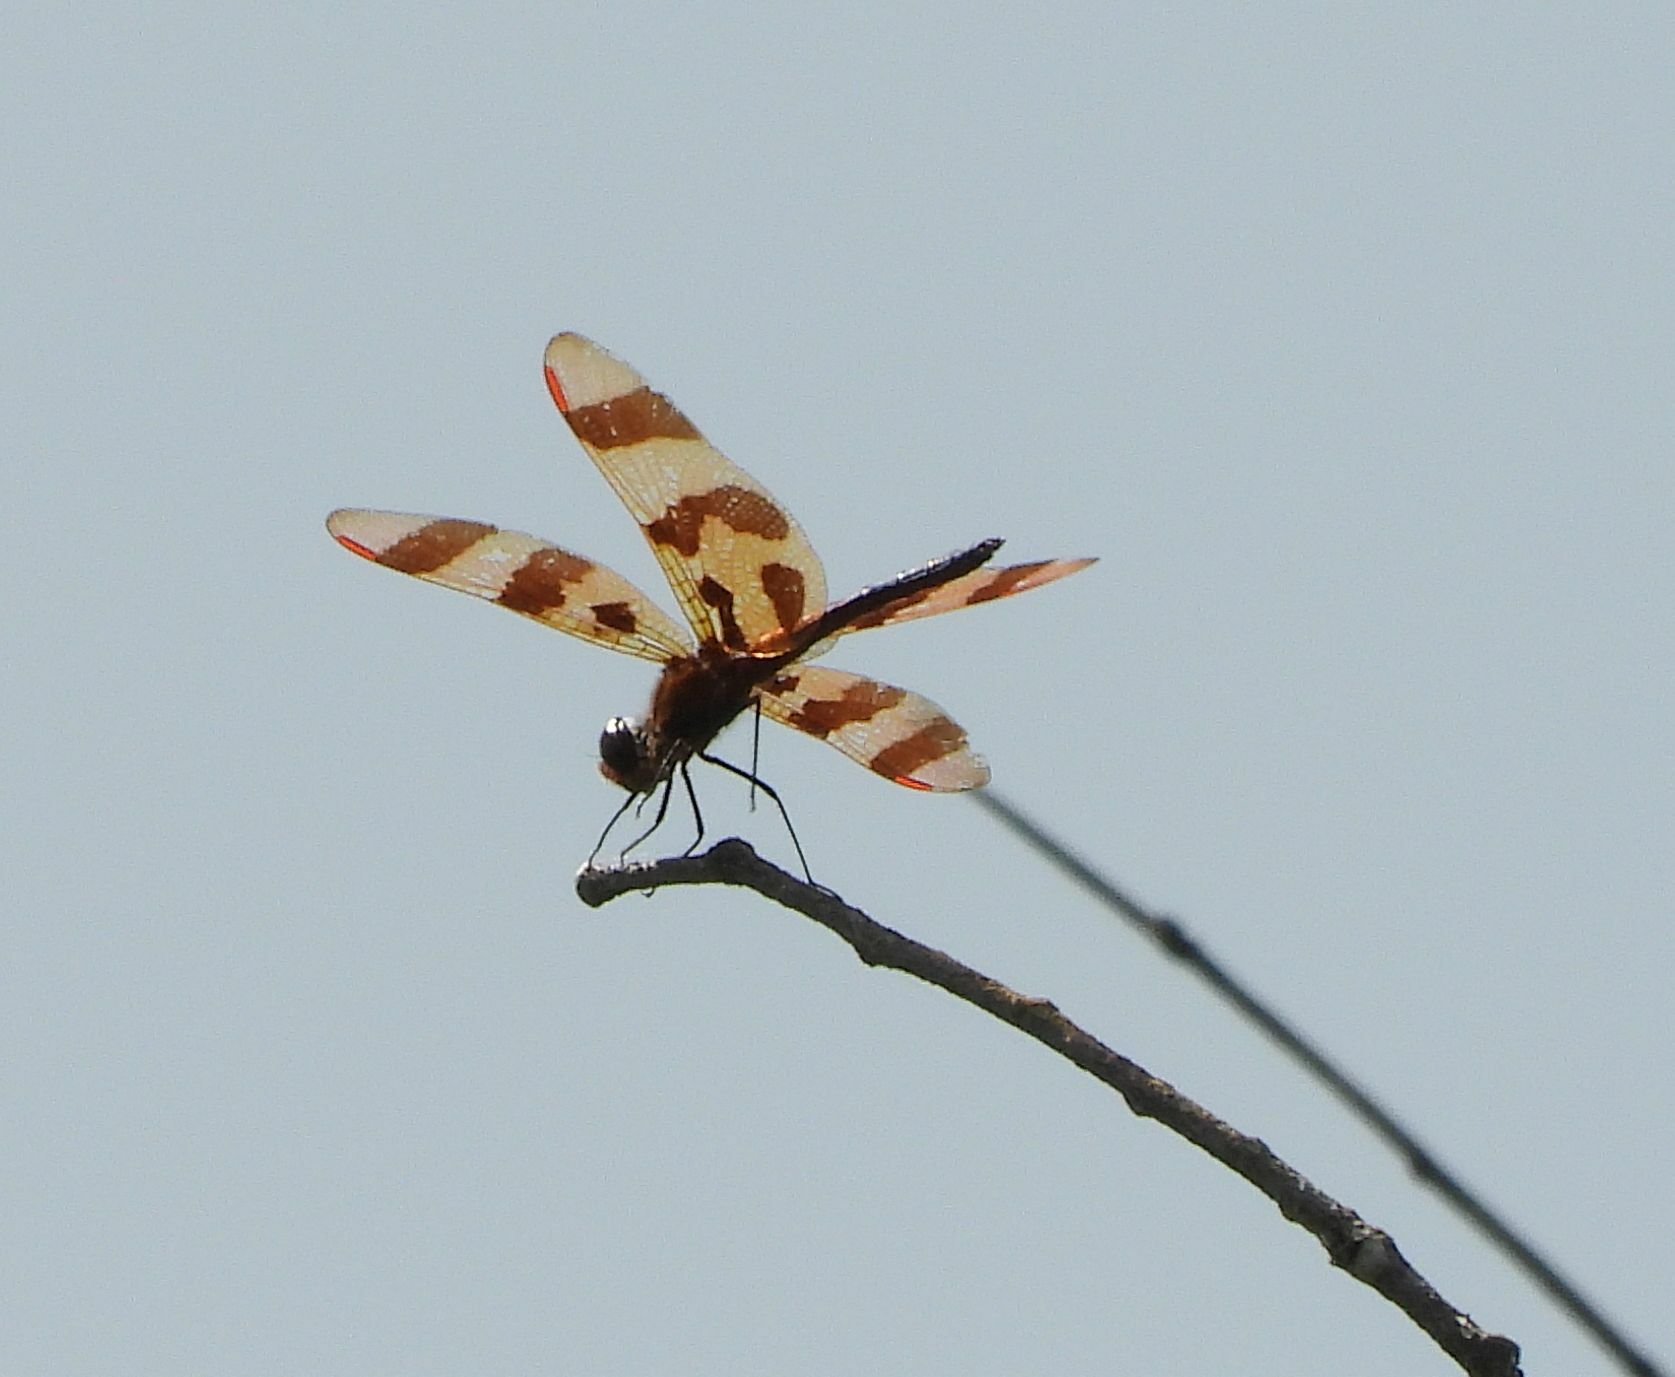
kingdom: Animalia
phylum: Arthropoda
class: Insecta
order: Odonata
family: Libellulidae
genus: Celithemis
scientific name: Celithemis eponina
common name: Halloween pennant
